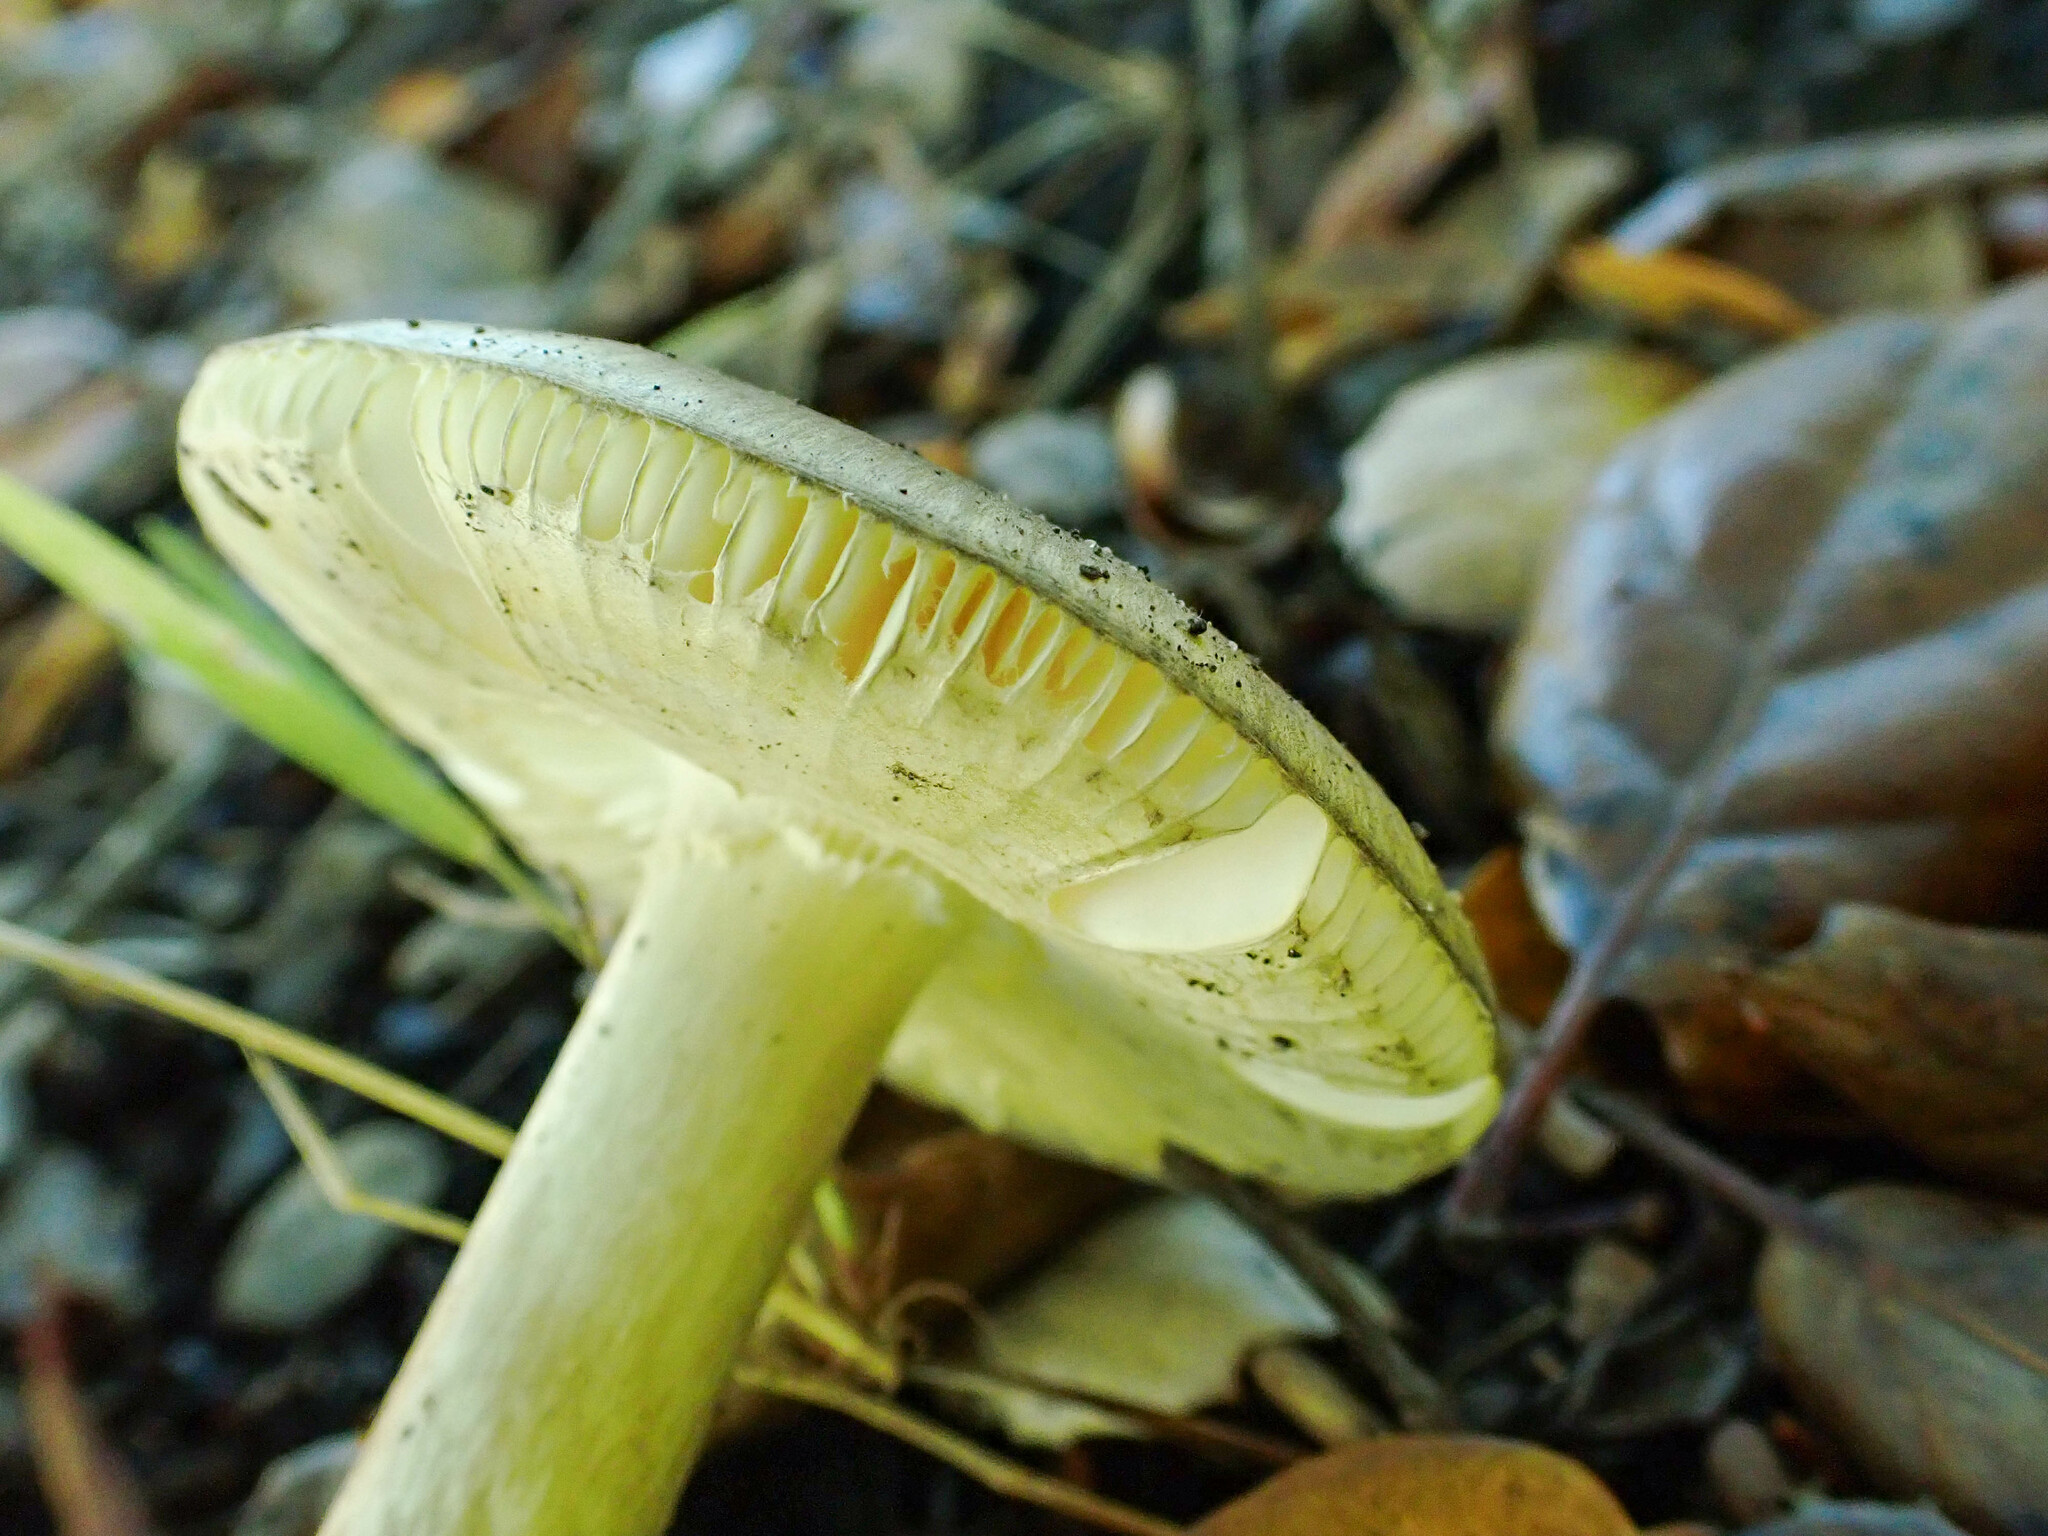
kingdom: Fungi
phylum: Basidiomycota
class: Agaricomycetes
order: Agaricales
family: Amanitaceae
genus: Amanita
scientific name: Amanita phalloides
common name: Death cap
